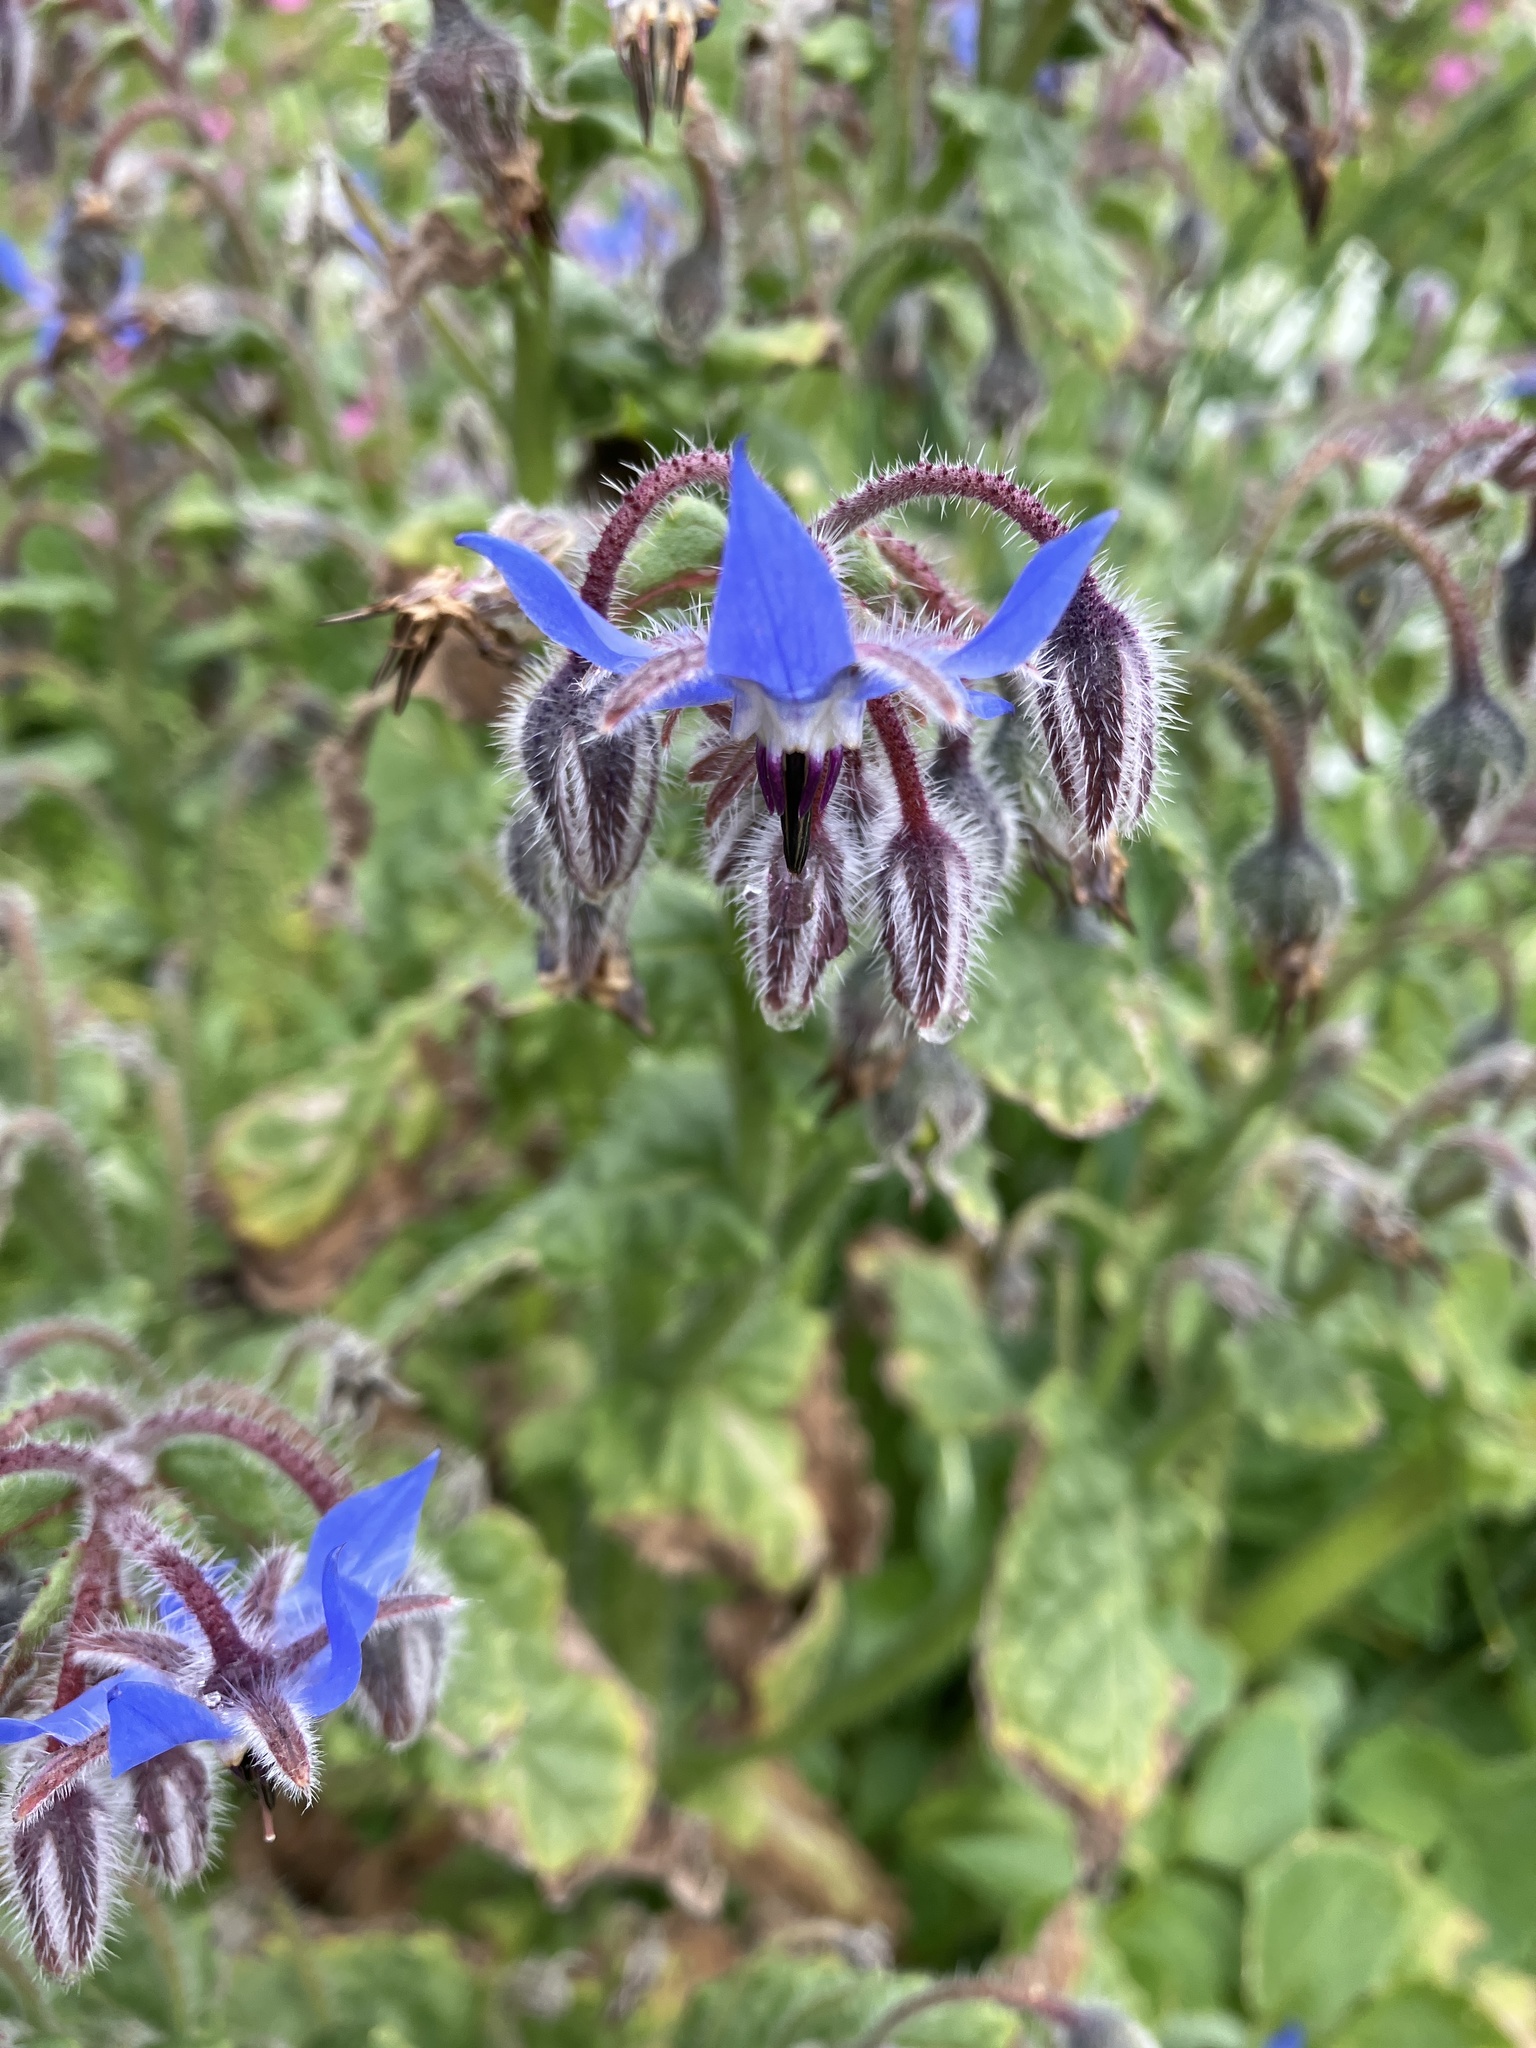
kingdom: Plantae
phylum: Tracheophyta
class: Magnoliopsida
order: Boraginales
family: Boraginaceae
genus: Borago
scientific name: Borago officinalis
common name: Borage
